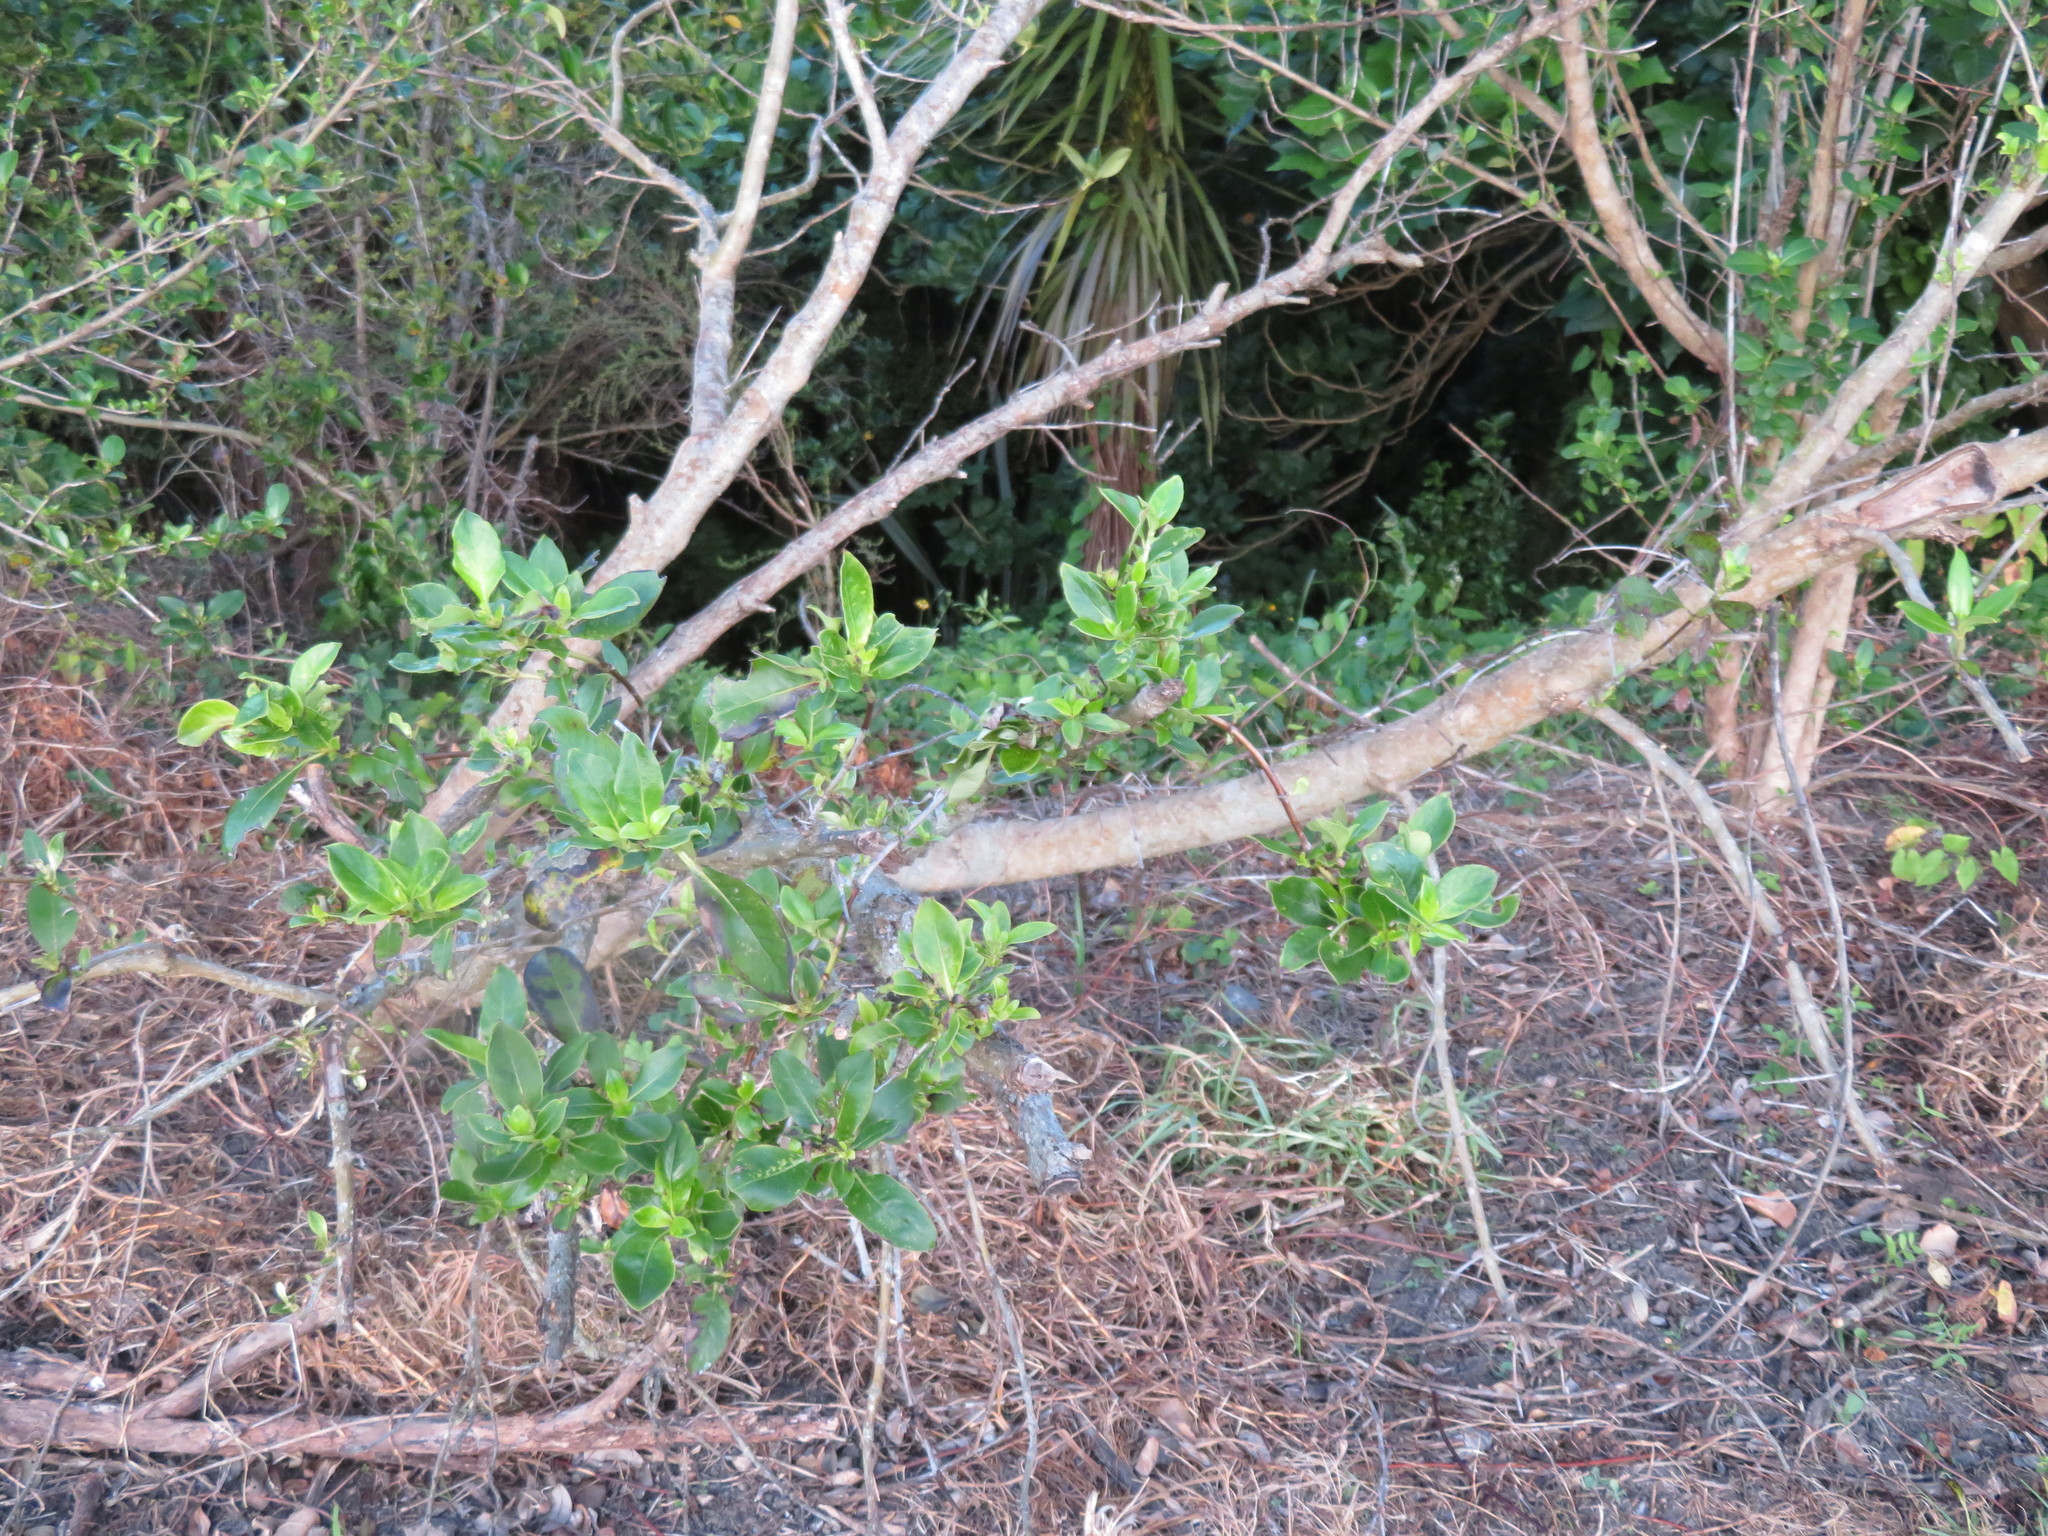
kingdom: Plantae
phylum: Tracheophyta
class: Magnoliopsida
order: Gentianales
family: Rubiaceae
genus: Coprosma
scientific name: Coprosma robusta
